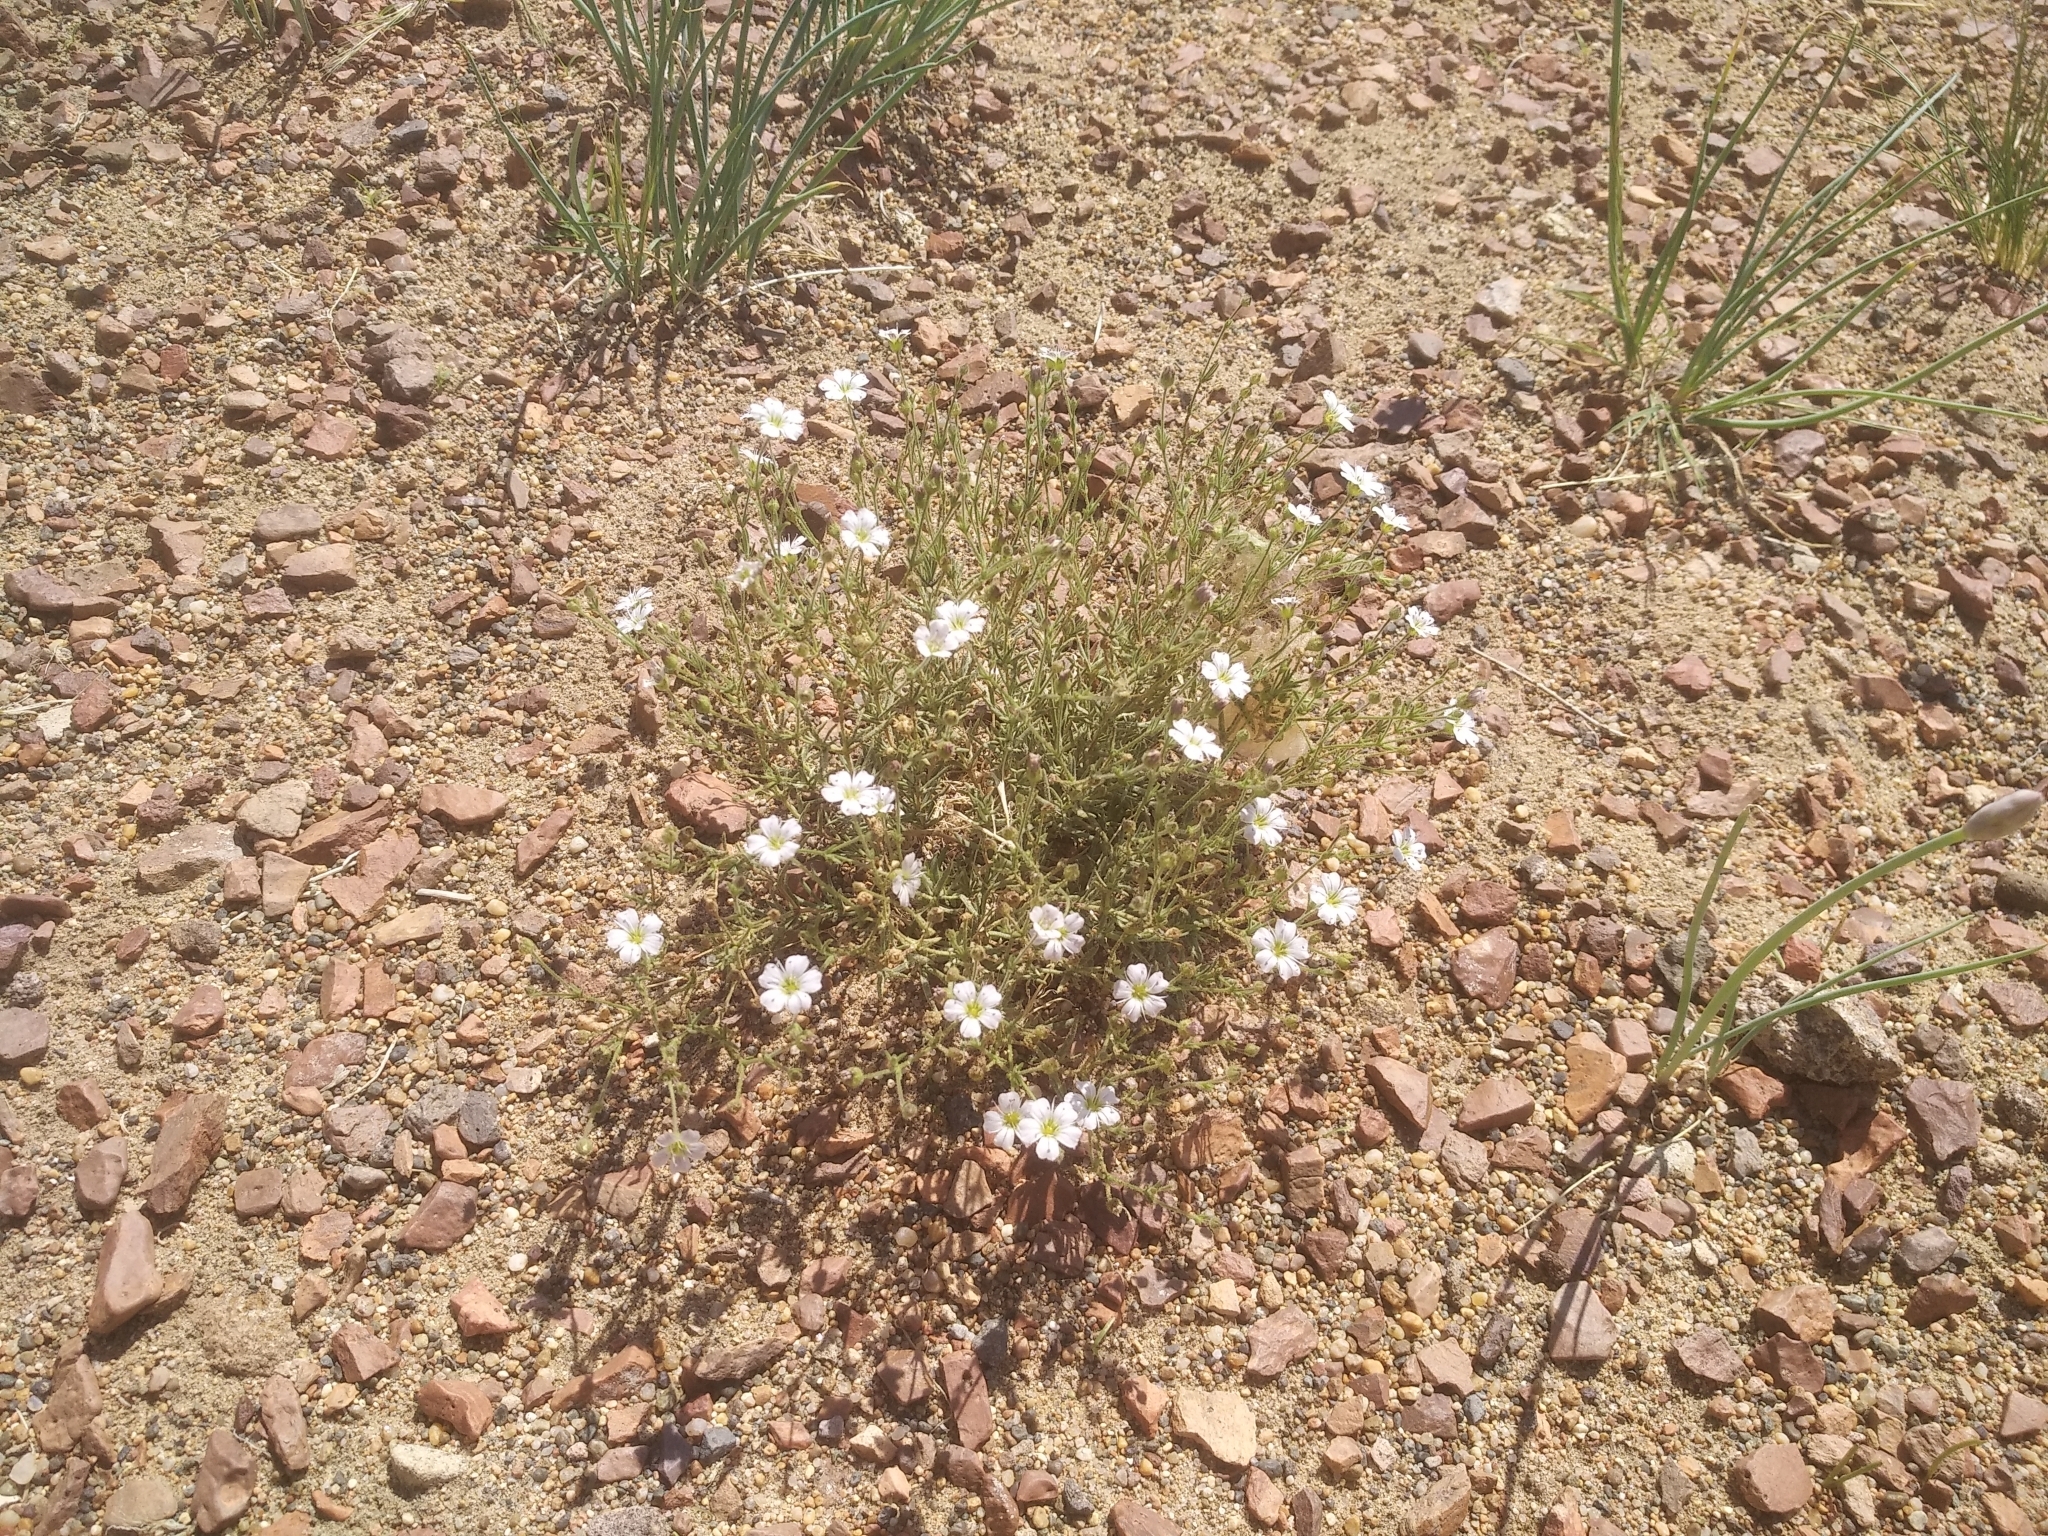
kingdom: Plantae
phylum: Tracheophyta
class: Magnoliopsida
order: Caryophyllales
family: Caryophyllaceae
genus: Heterochroa
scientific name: Heterochroa desertorum
